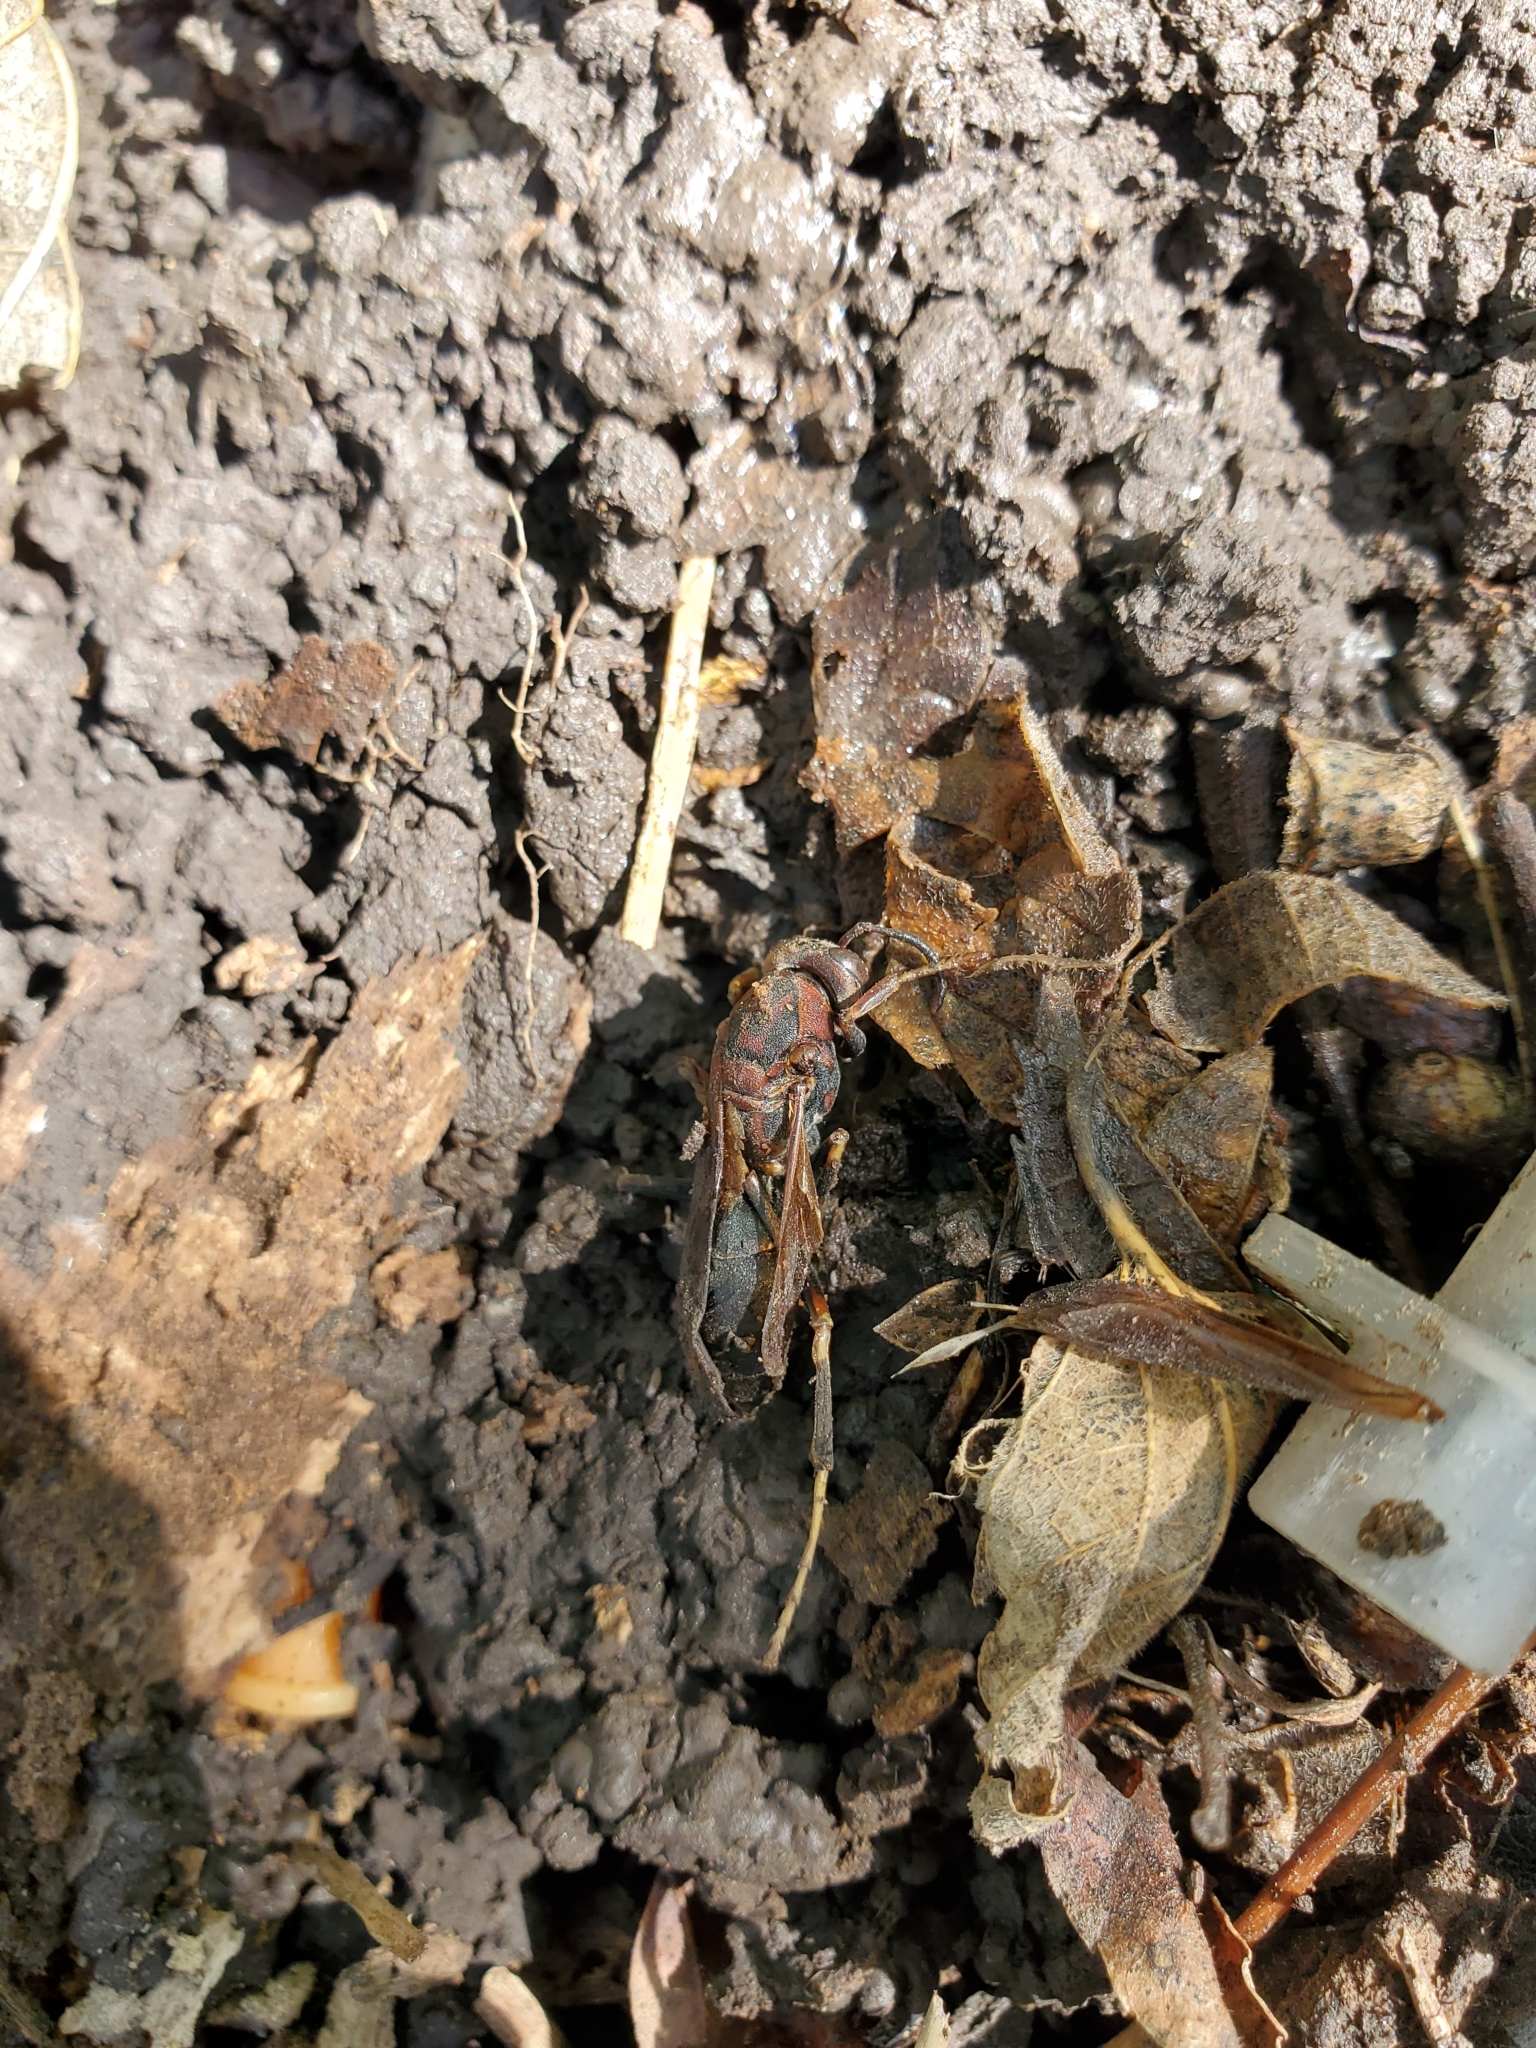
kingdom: Animalia
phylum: Arthropoda
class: Insecta
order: Hymenoptera
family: Eumenidae
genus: Polistes
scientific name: Polistes fuscatus
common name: Dark paper wasp
